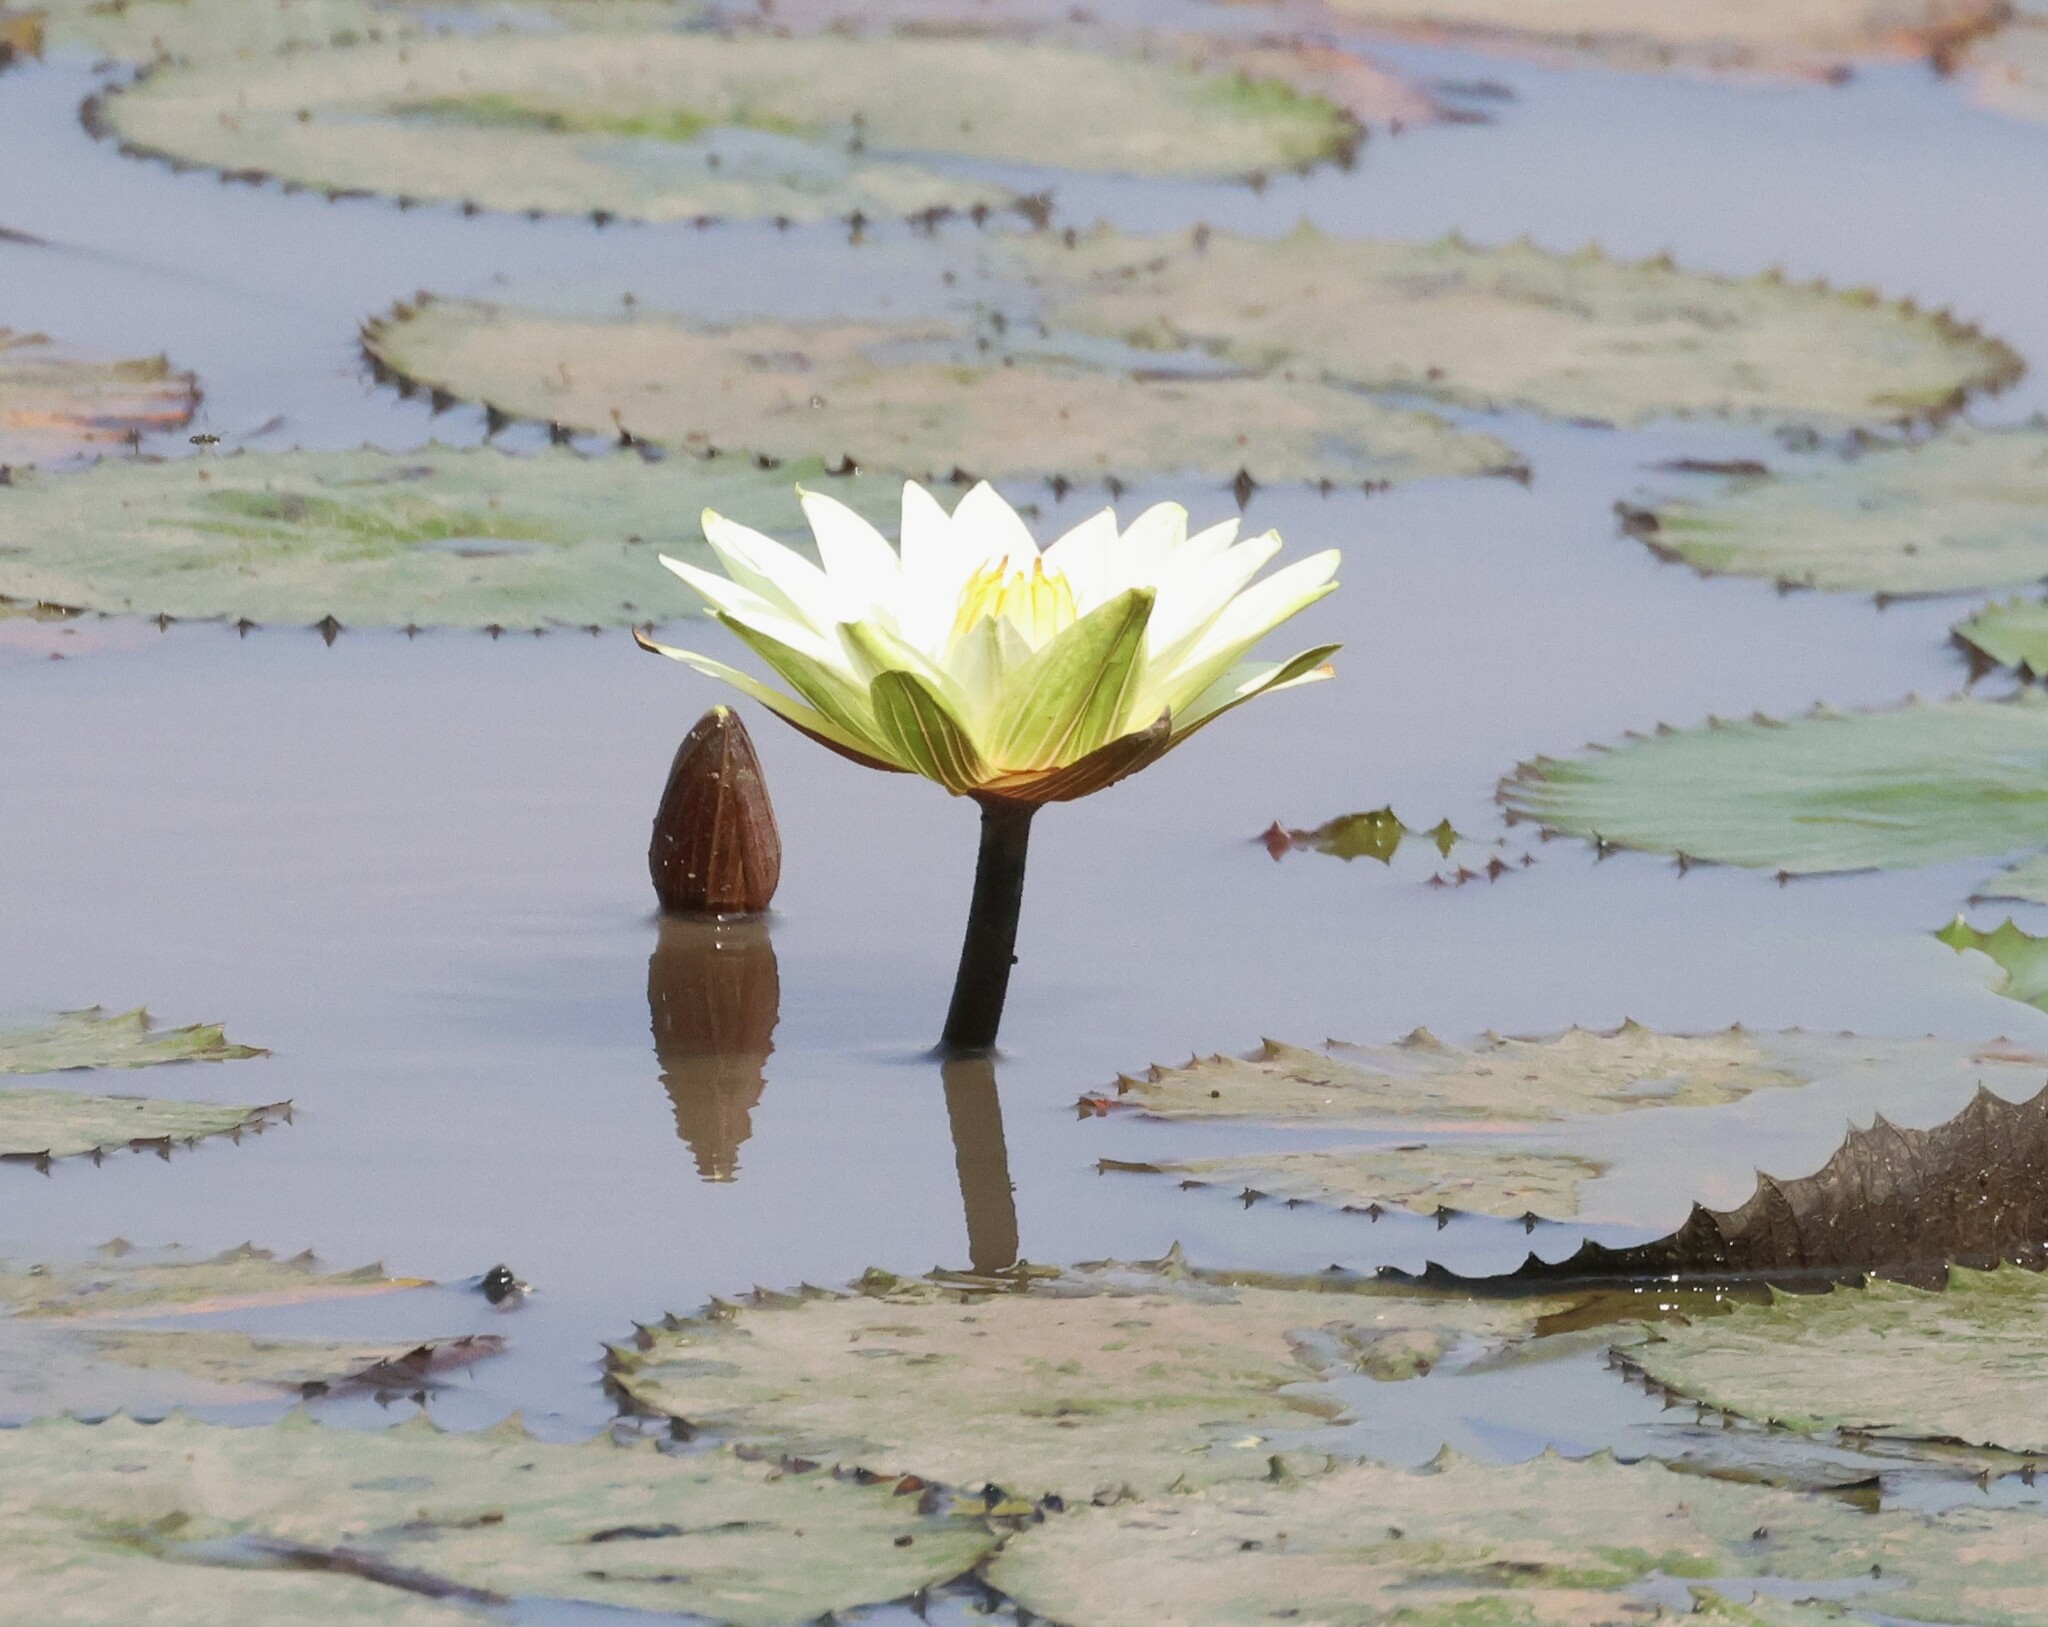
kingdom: Plantae
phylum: Tracheophyta
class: Magnoliopsida
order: Nymphaeales
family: Nymphaeaceae
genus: Nymphaea
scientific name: Nymphaea lotus
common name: White egyptian lotus
